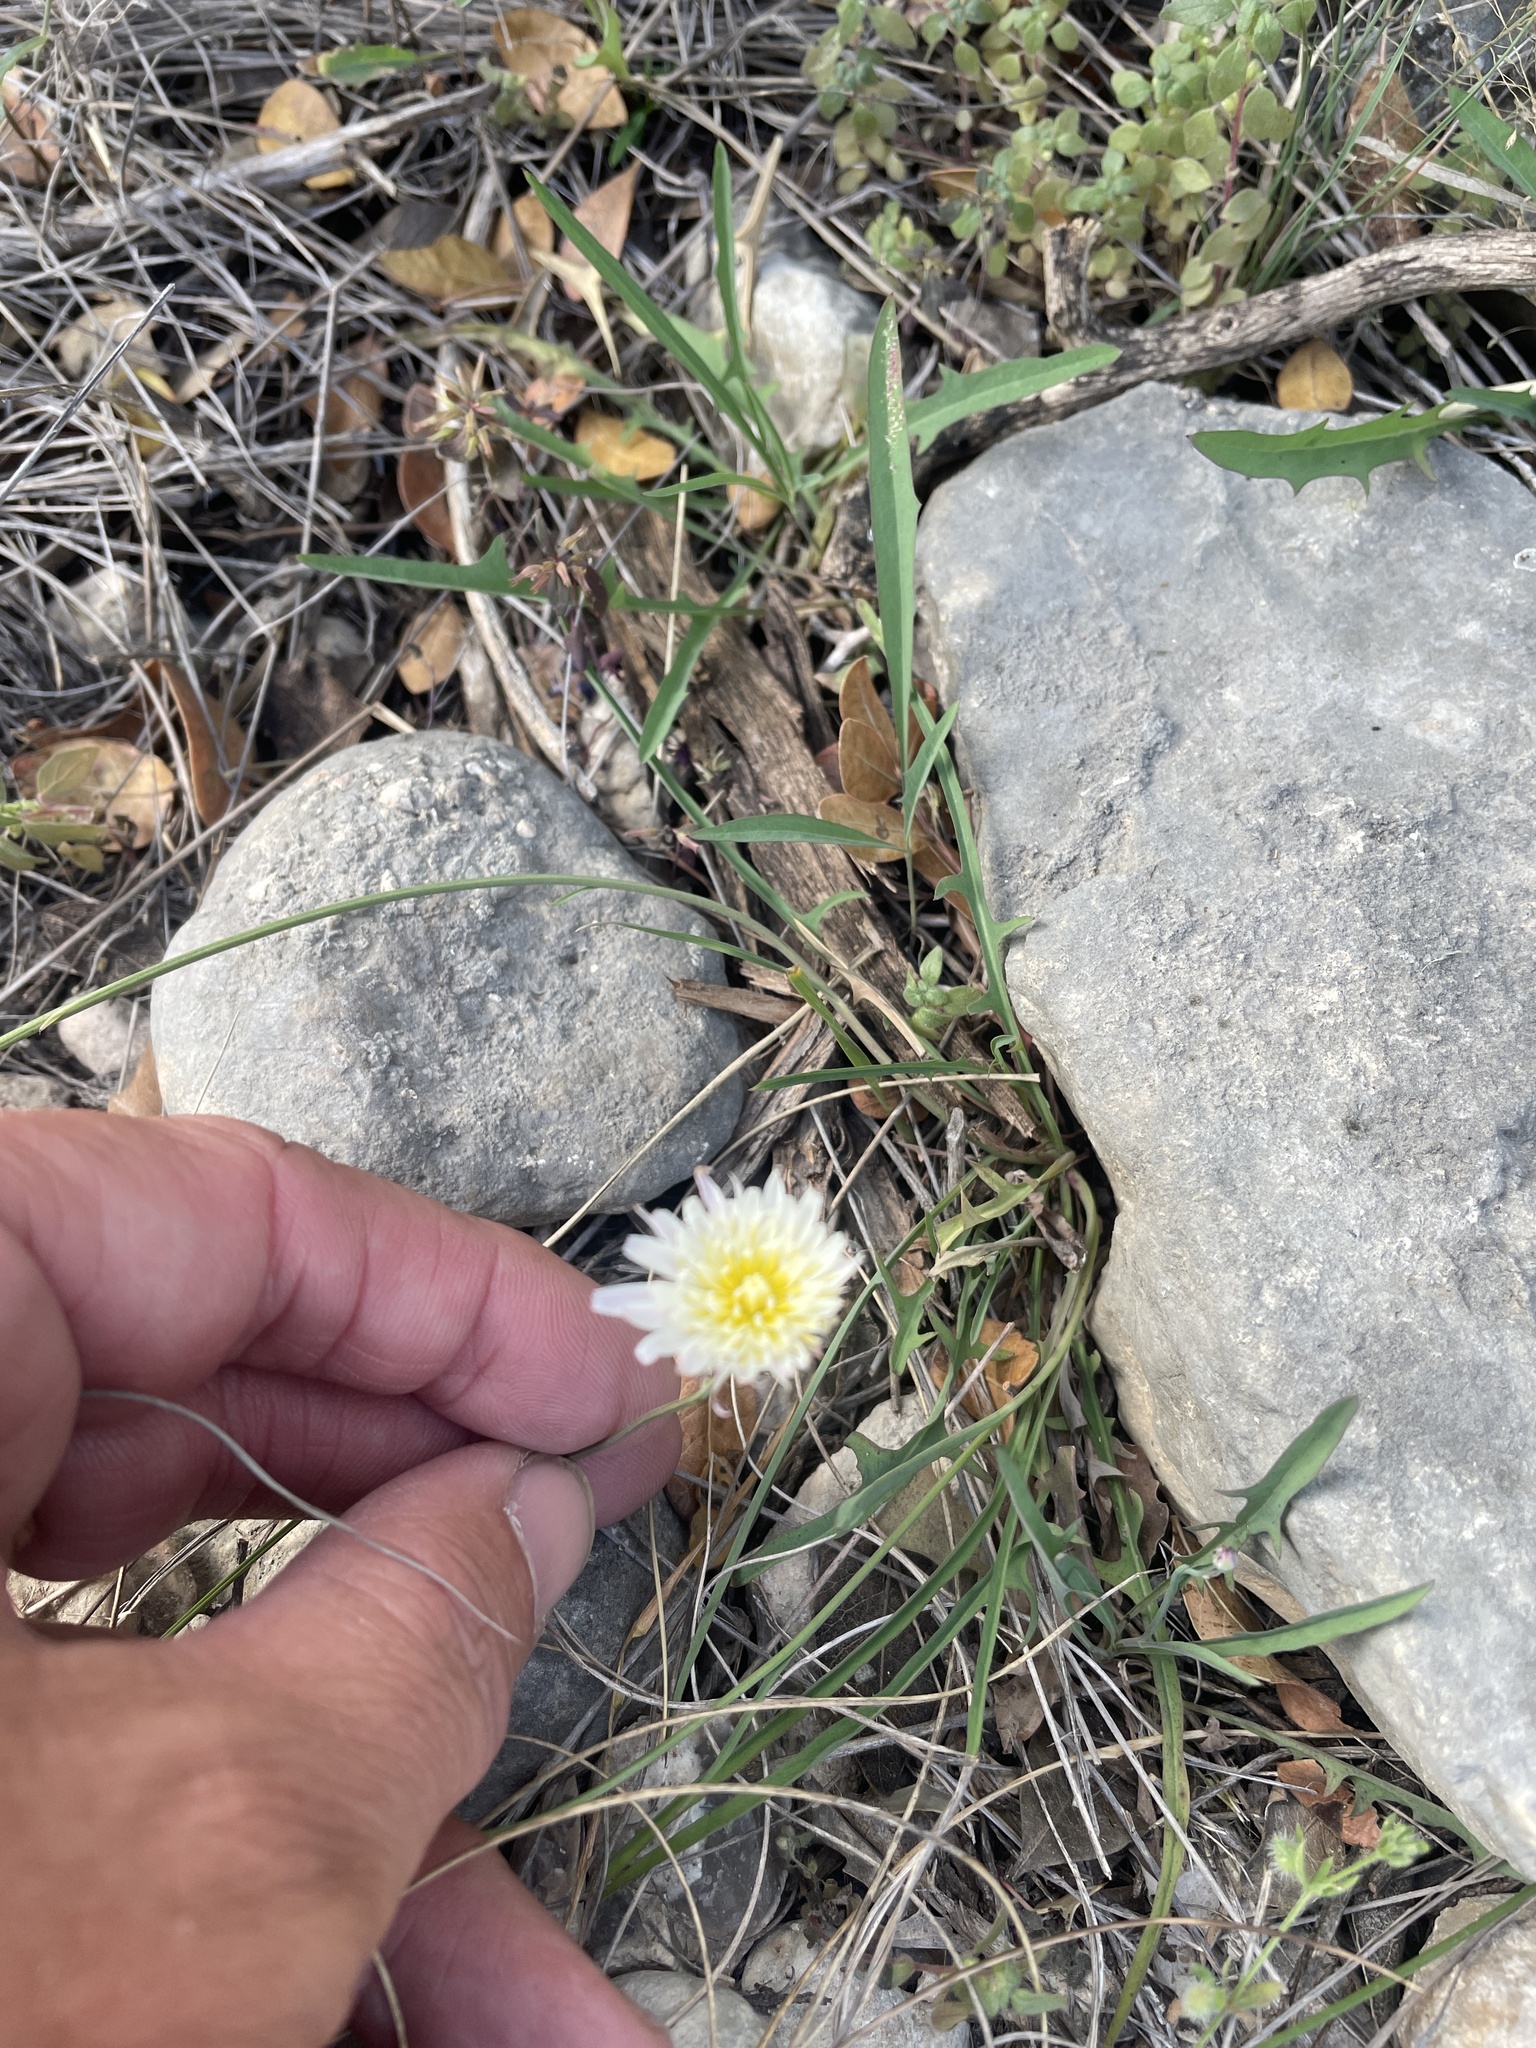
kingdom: Plantae
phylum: Tracheophyta
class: Magnoliopsida
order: Asterales
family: Asteraceae
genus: Pinaropappus
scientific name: Pinaropappus roseus
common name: Rock-lettuce
